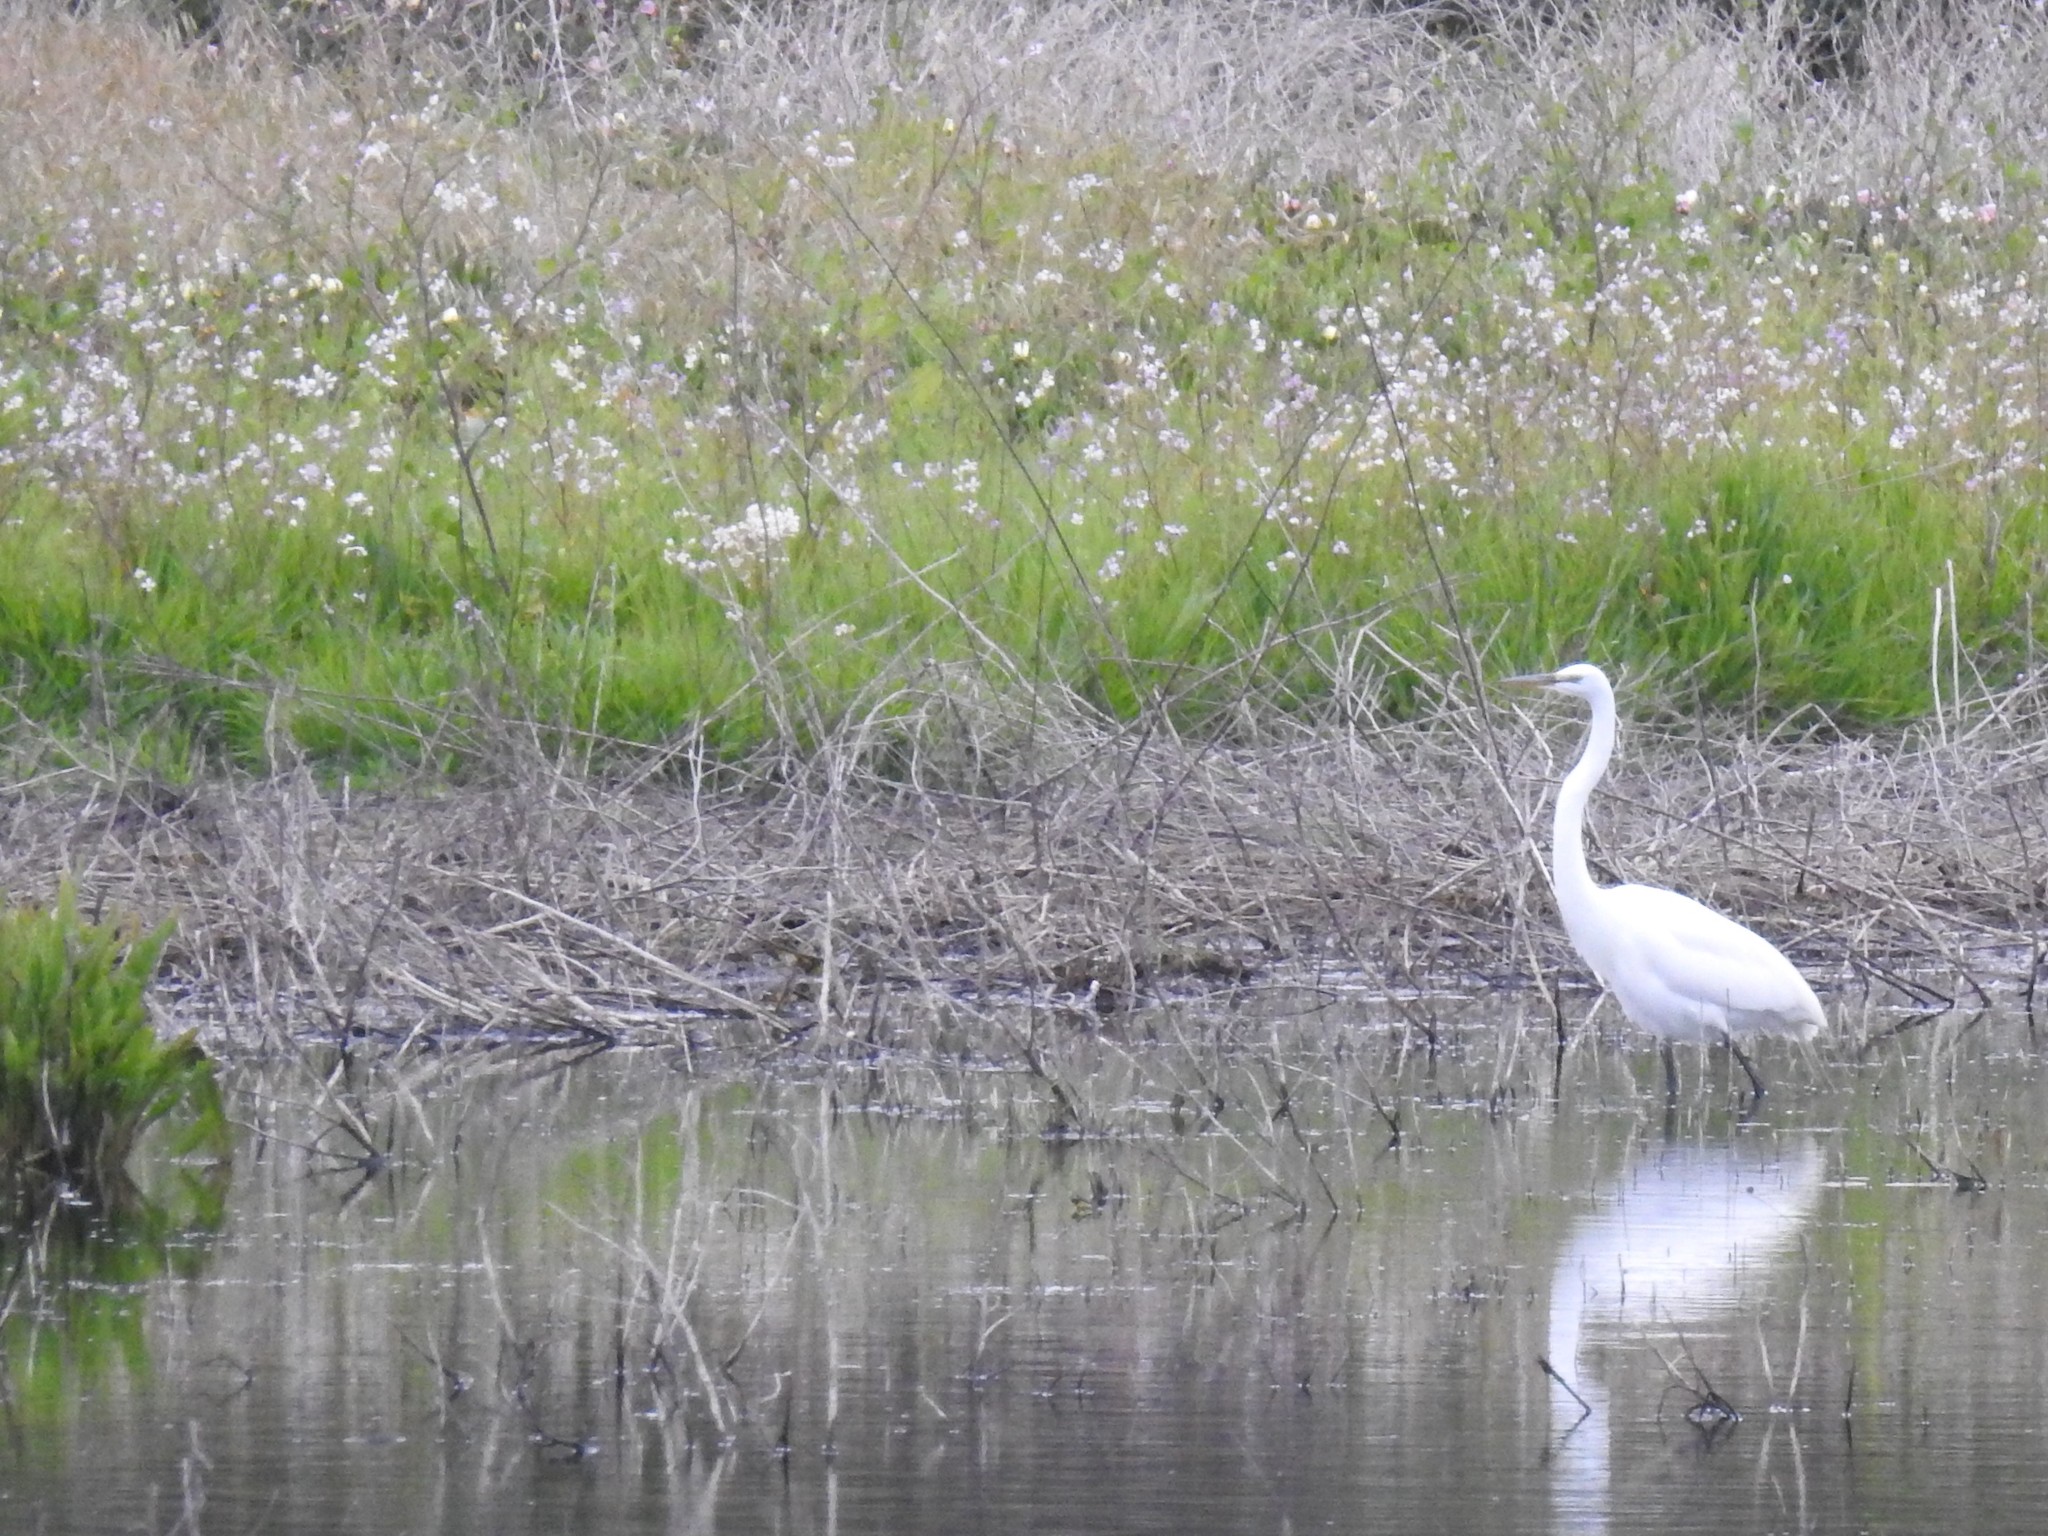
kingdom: Animalia
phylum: Chordata
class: Aves
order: Pelecaniformes
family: Ardeidae
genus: Ardea
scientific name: Ardea alba
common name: Great egret
